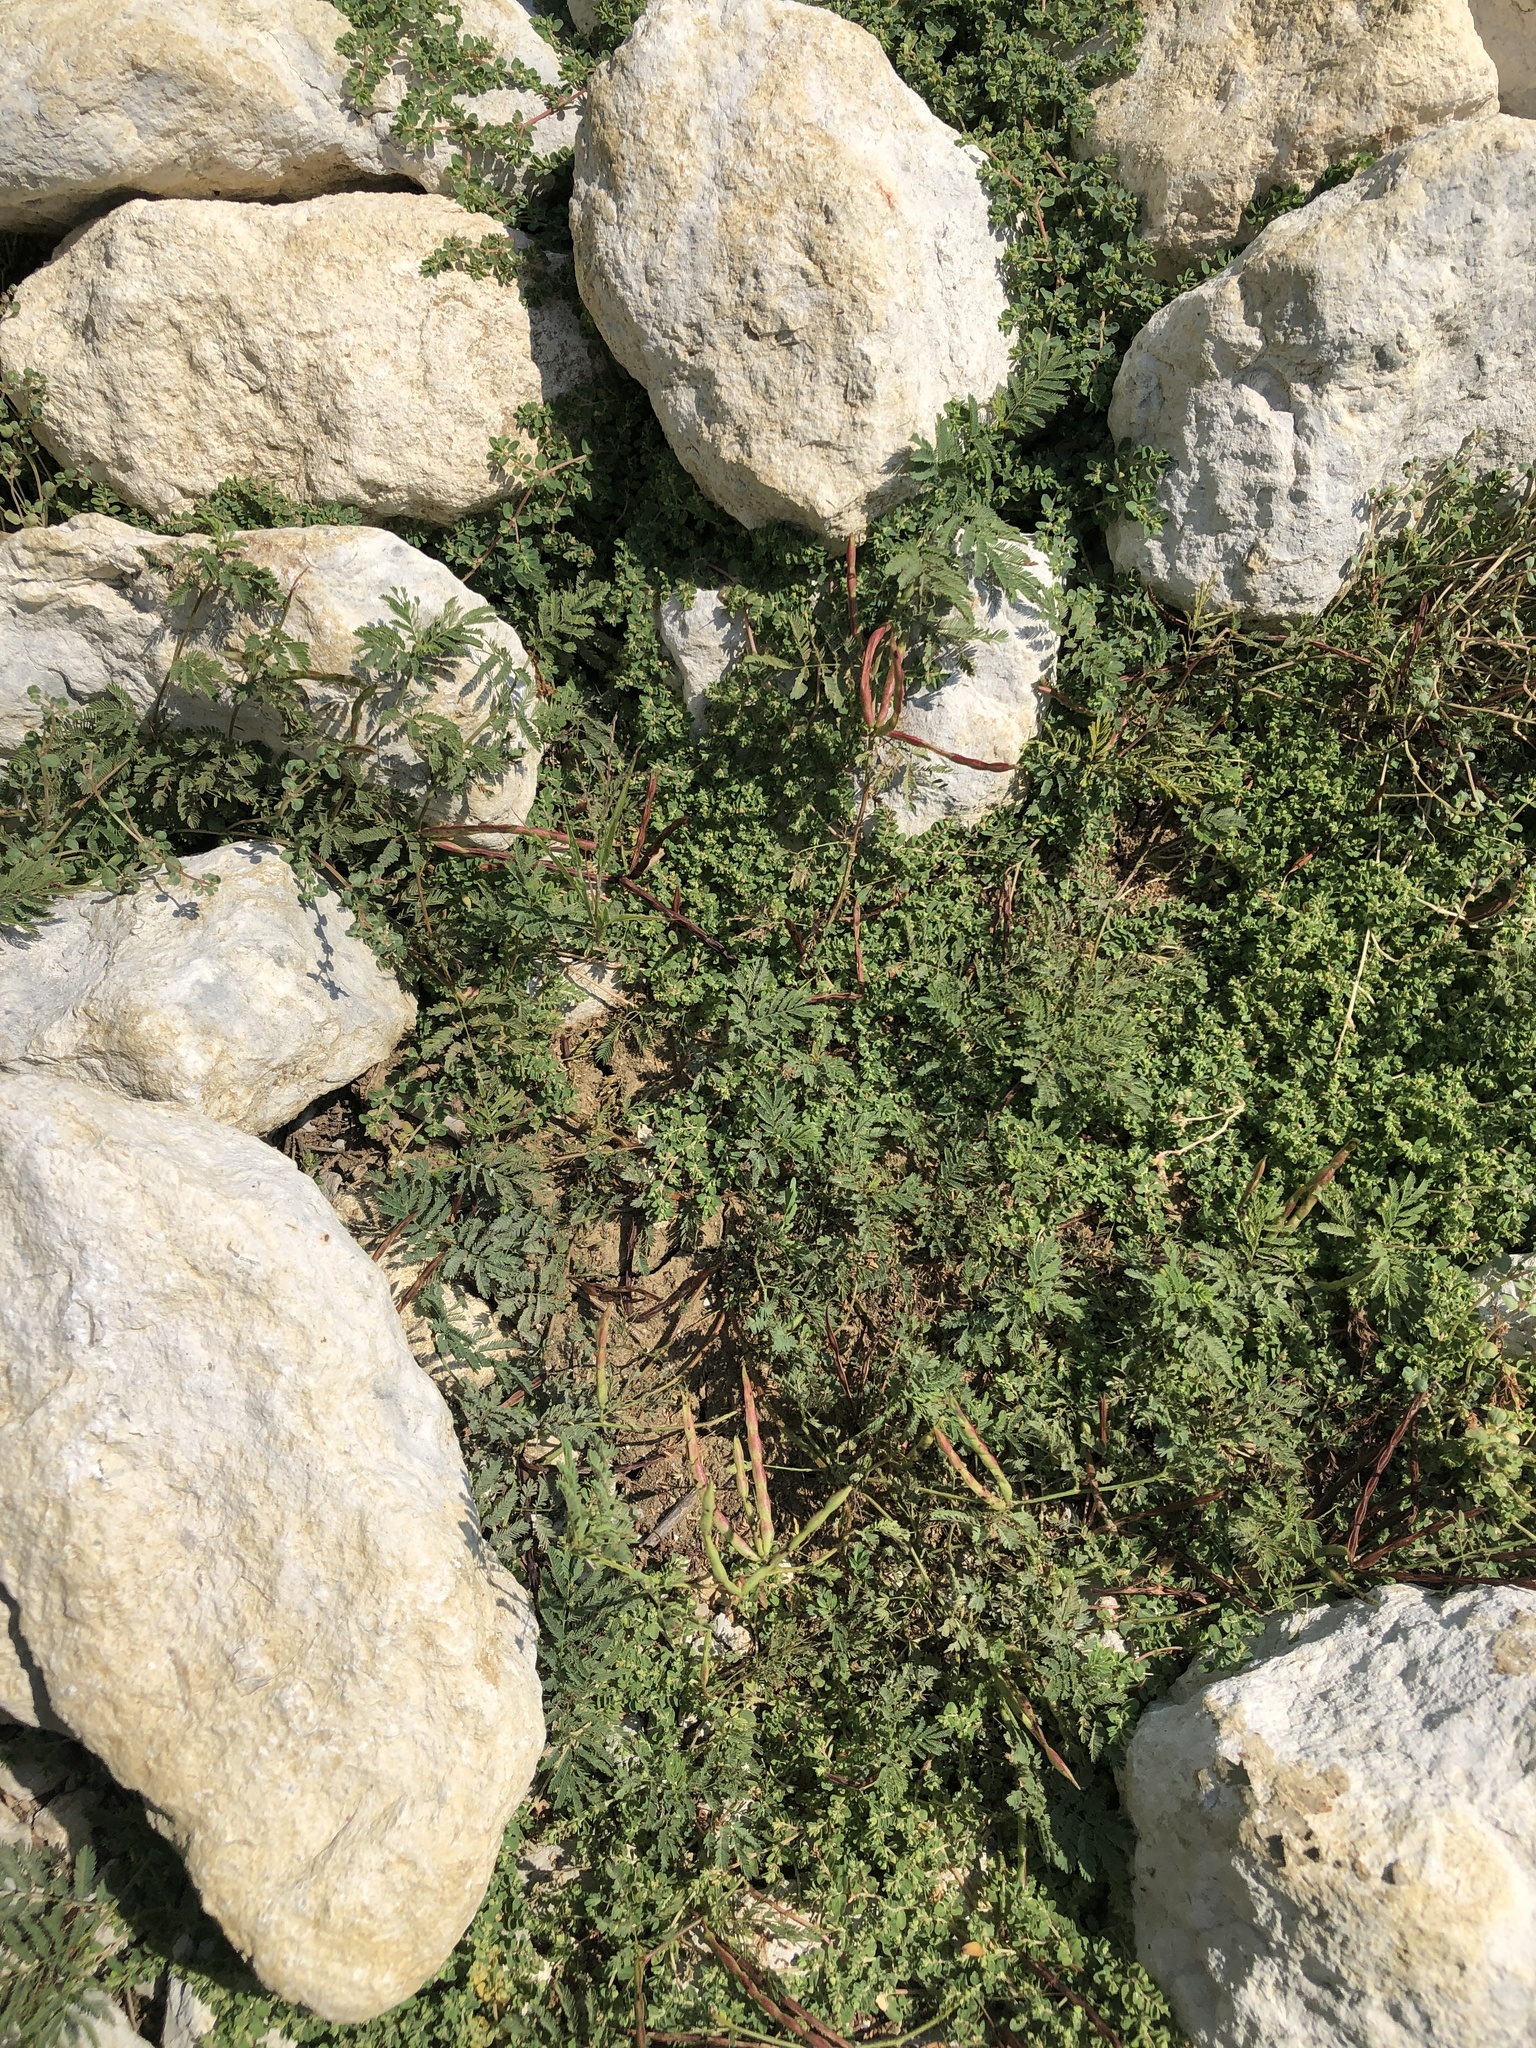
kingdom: Plantae
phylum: Tracheophyta
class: Magnoliopsida
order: Fabales
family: Fabaceae
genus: Desmanthus
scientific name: Desmanthus leptolobus
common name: Prairie-mimosa
